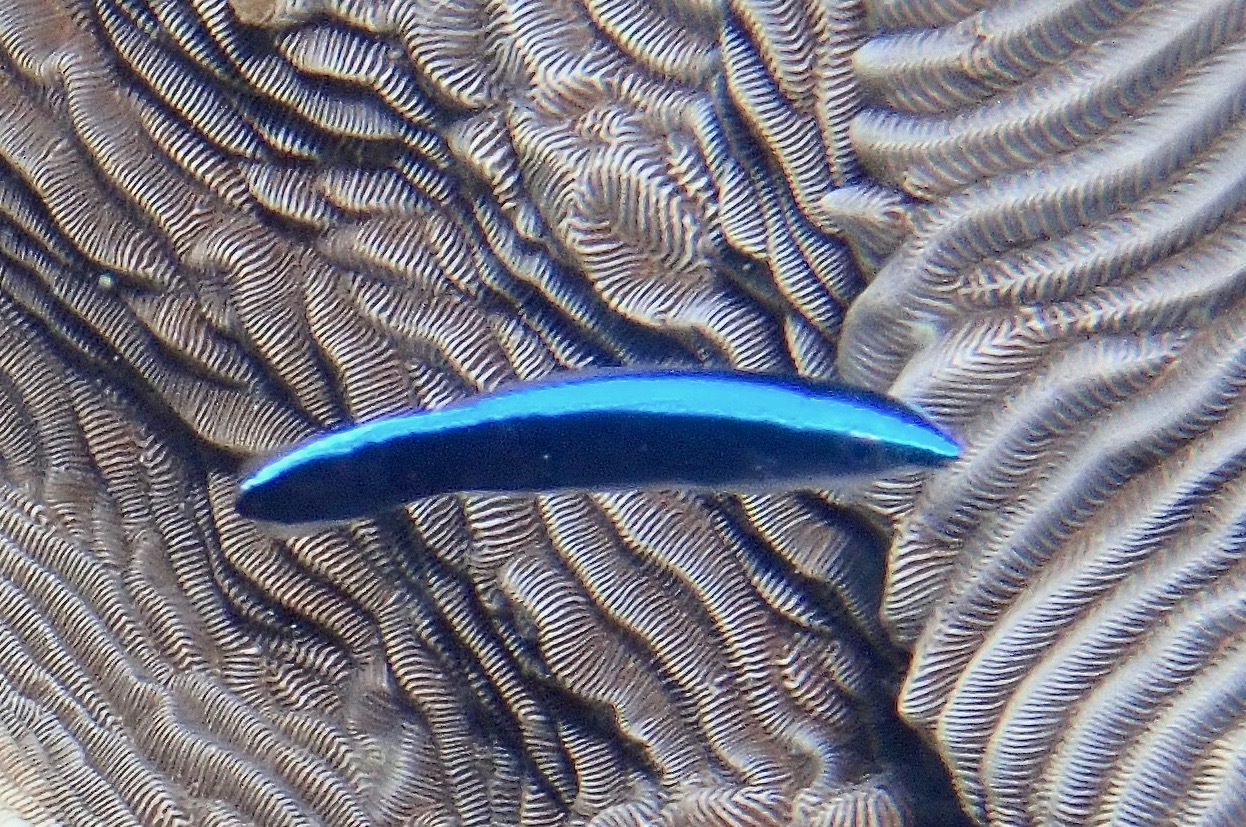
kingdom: Animalia
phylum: Chordata
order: Perciformes
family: Labridae
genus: Labroides
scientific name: Labroides dimidiatus
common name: Blue diesel wrasse
